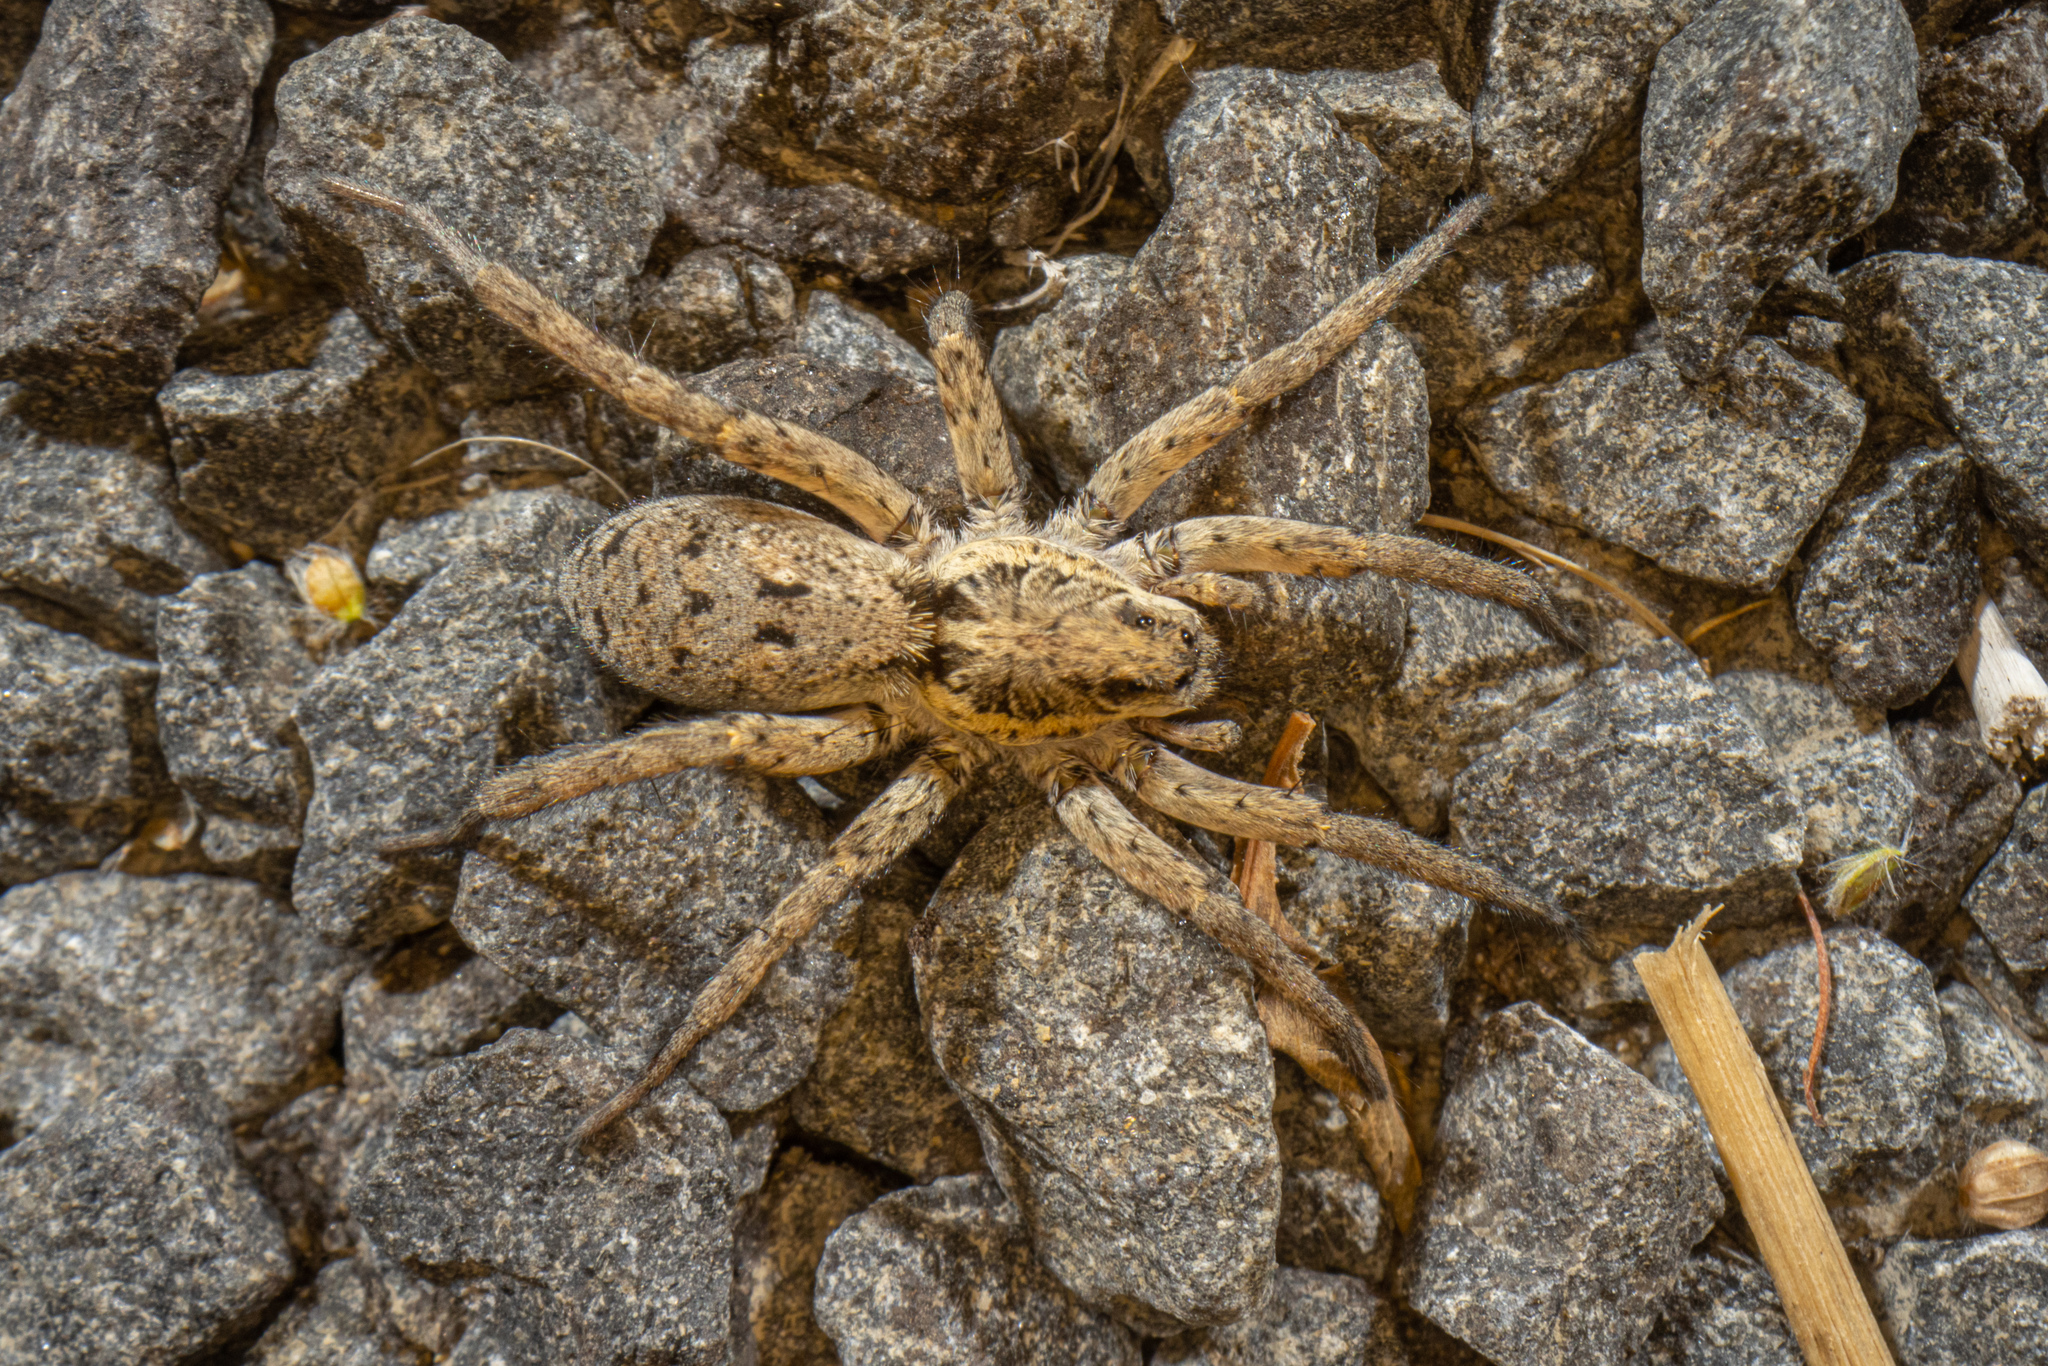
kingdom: Animalia
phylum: Arthropoda
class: Arachnida
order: Araneae
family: Lycosidae
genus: Hogna
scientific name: Hogna crispipes
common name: Wolf spider
